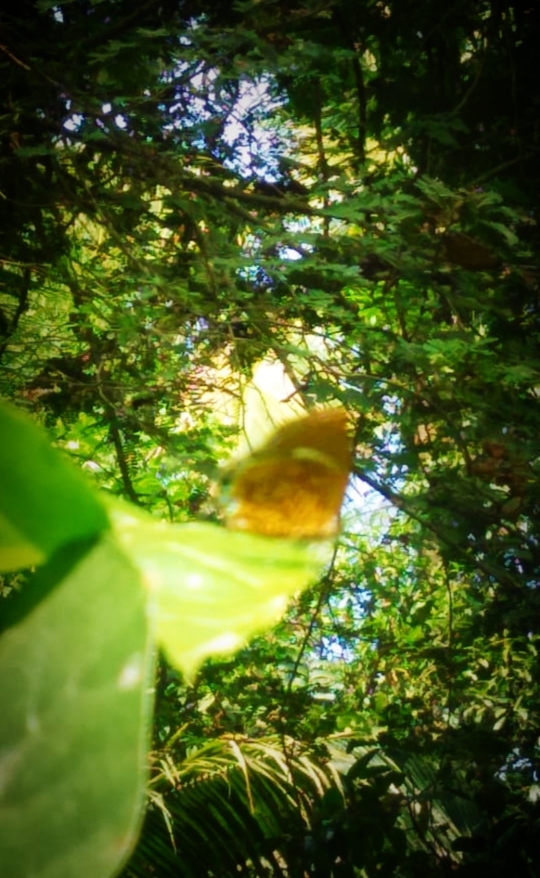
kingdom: Animalia
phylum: Arthropoda
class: Insecta
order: Lepidoptera
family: Lycaenidae
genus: Rathinda
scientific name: Rathinda amor
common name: Monkey puzzle
